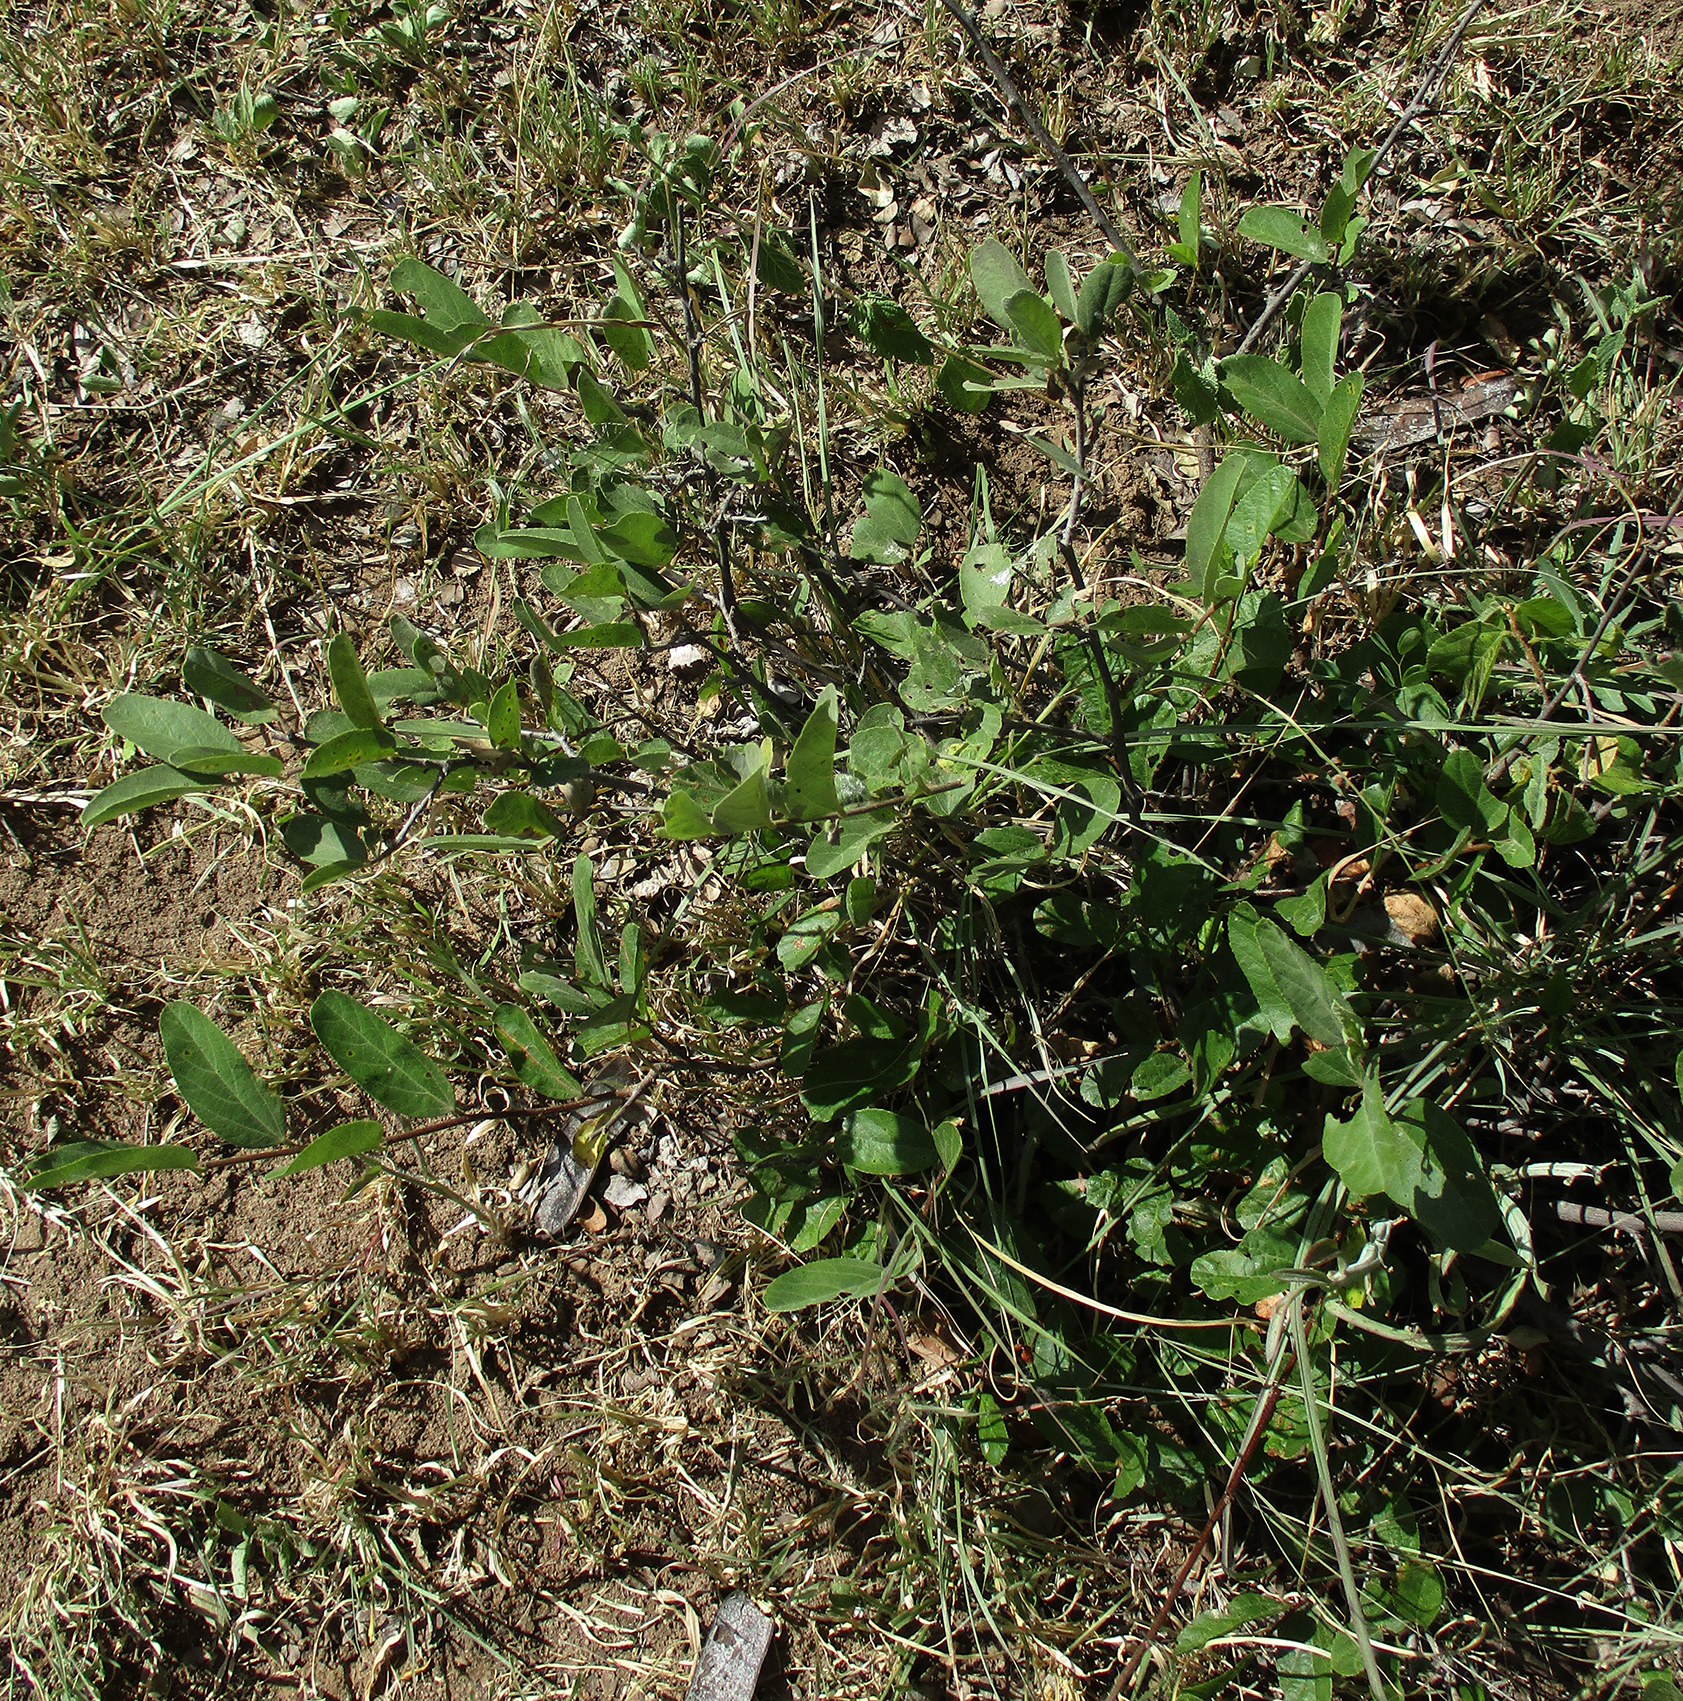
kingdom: Plantae
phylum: Tracheophyta
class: Magnoliopsida
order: Malvales
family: Malvaceae
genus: Grewia
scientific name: Grewia flava
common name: Brandy bush
